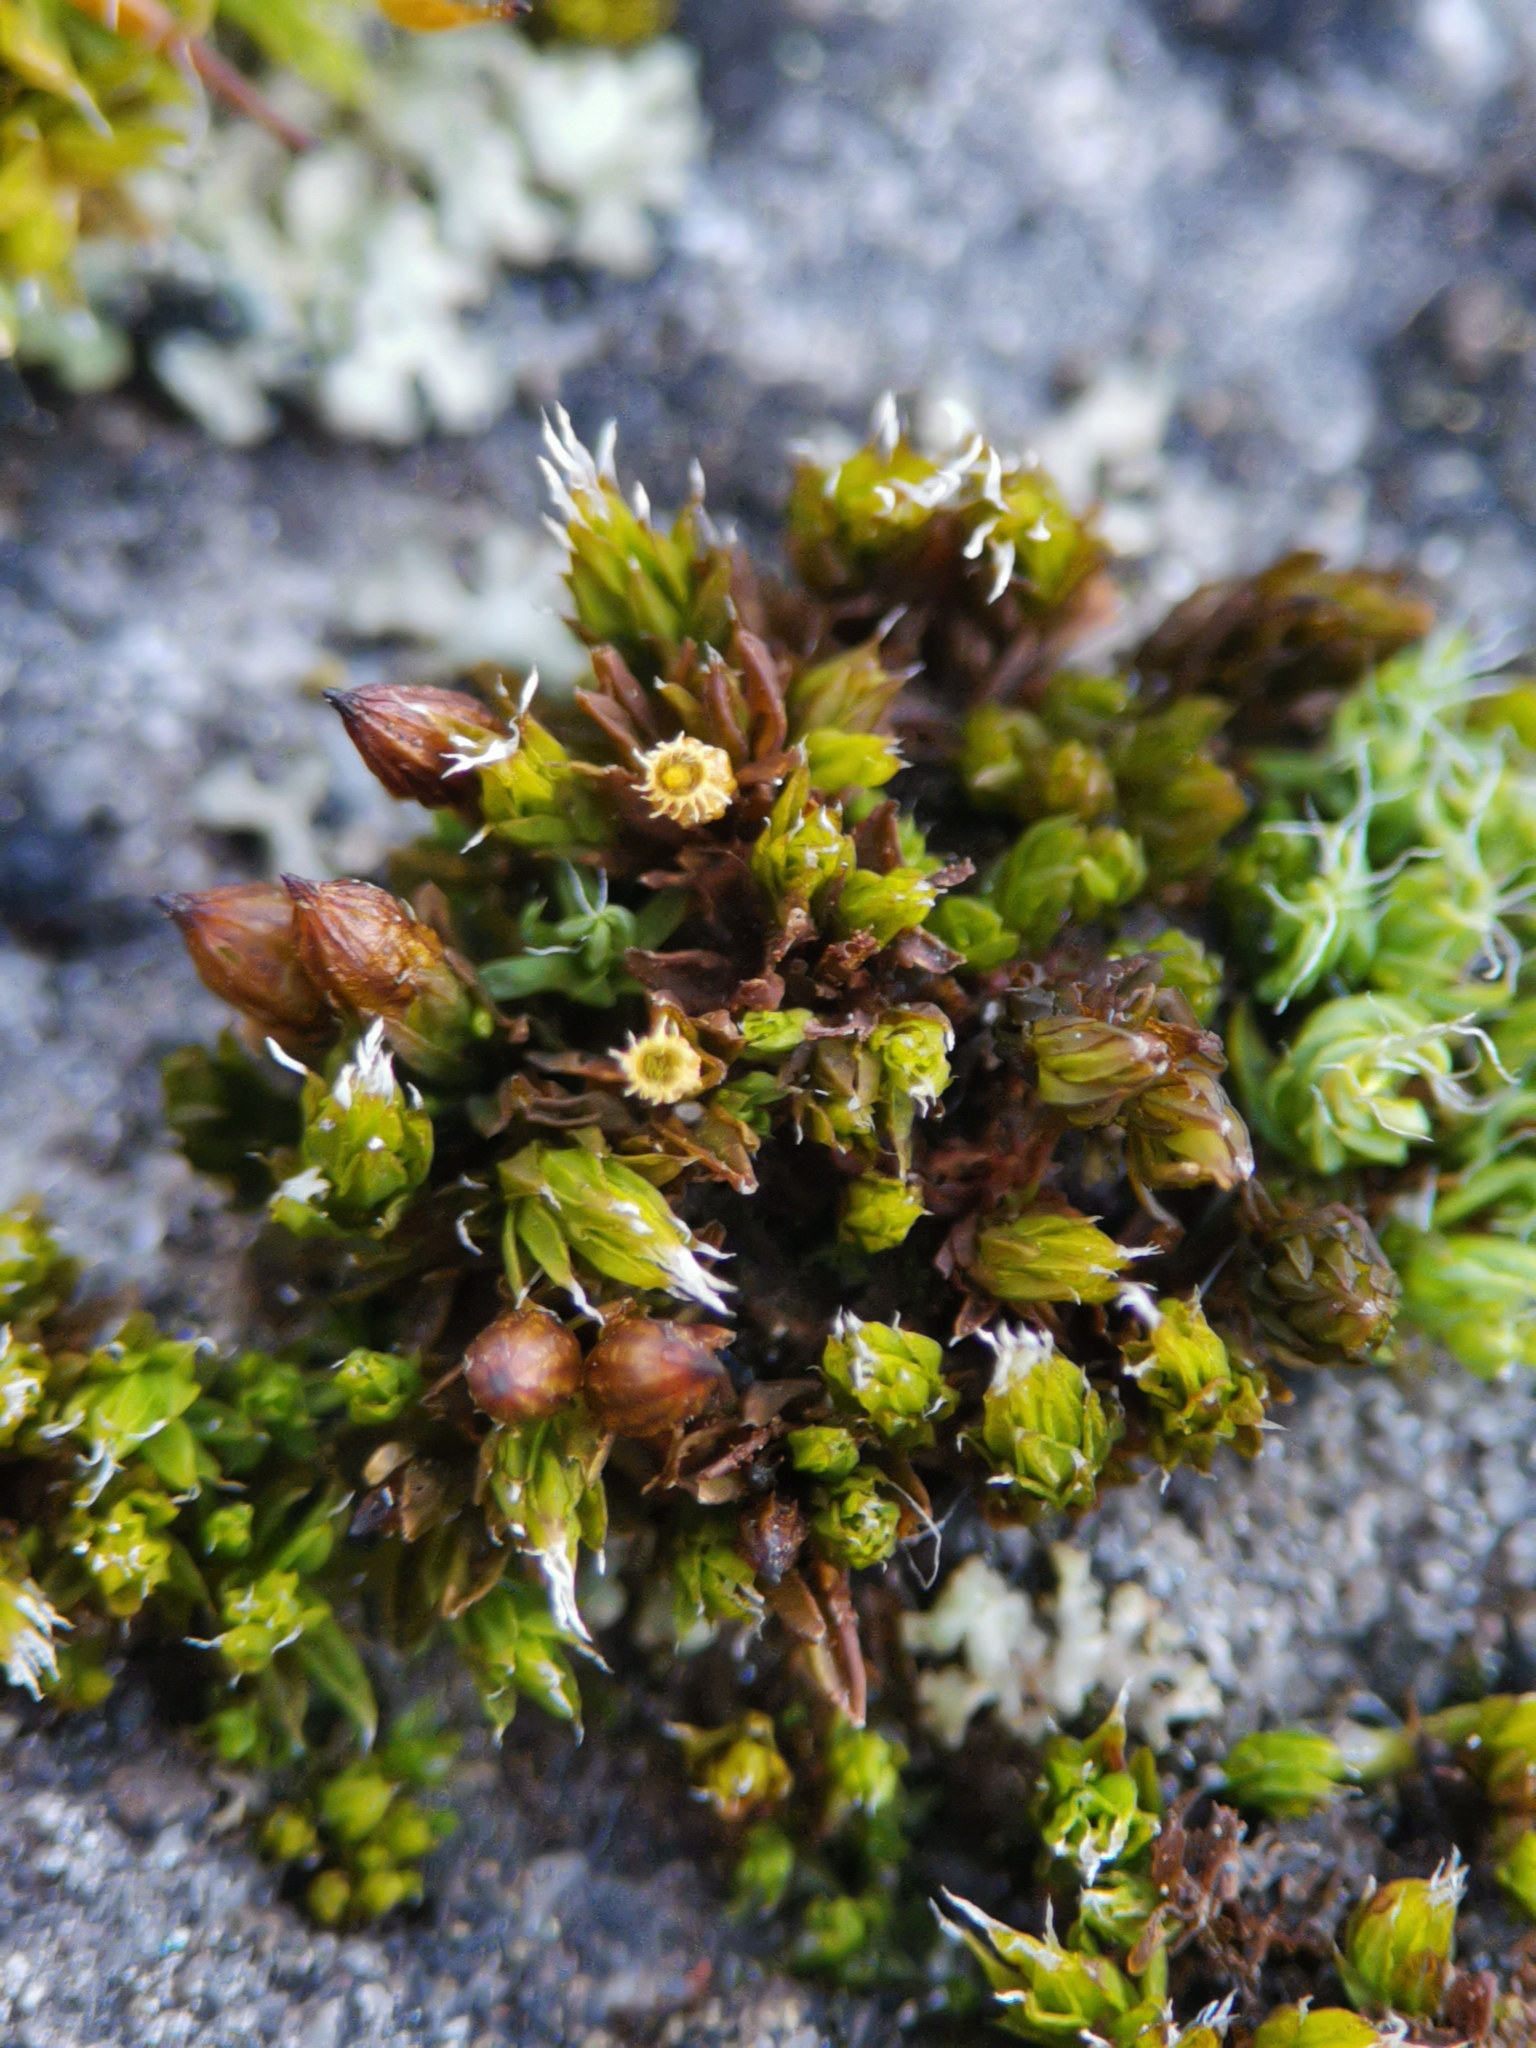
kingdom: Plantae
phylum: Bryophyta
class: Bryopsida
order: Orthotrichales
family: Orthotrichaceae
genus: Orthotrichum
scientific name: Orthotrichum diaphanum
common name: White-tipped bristle-moss
